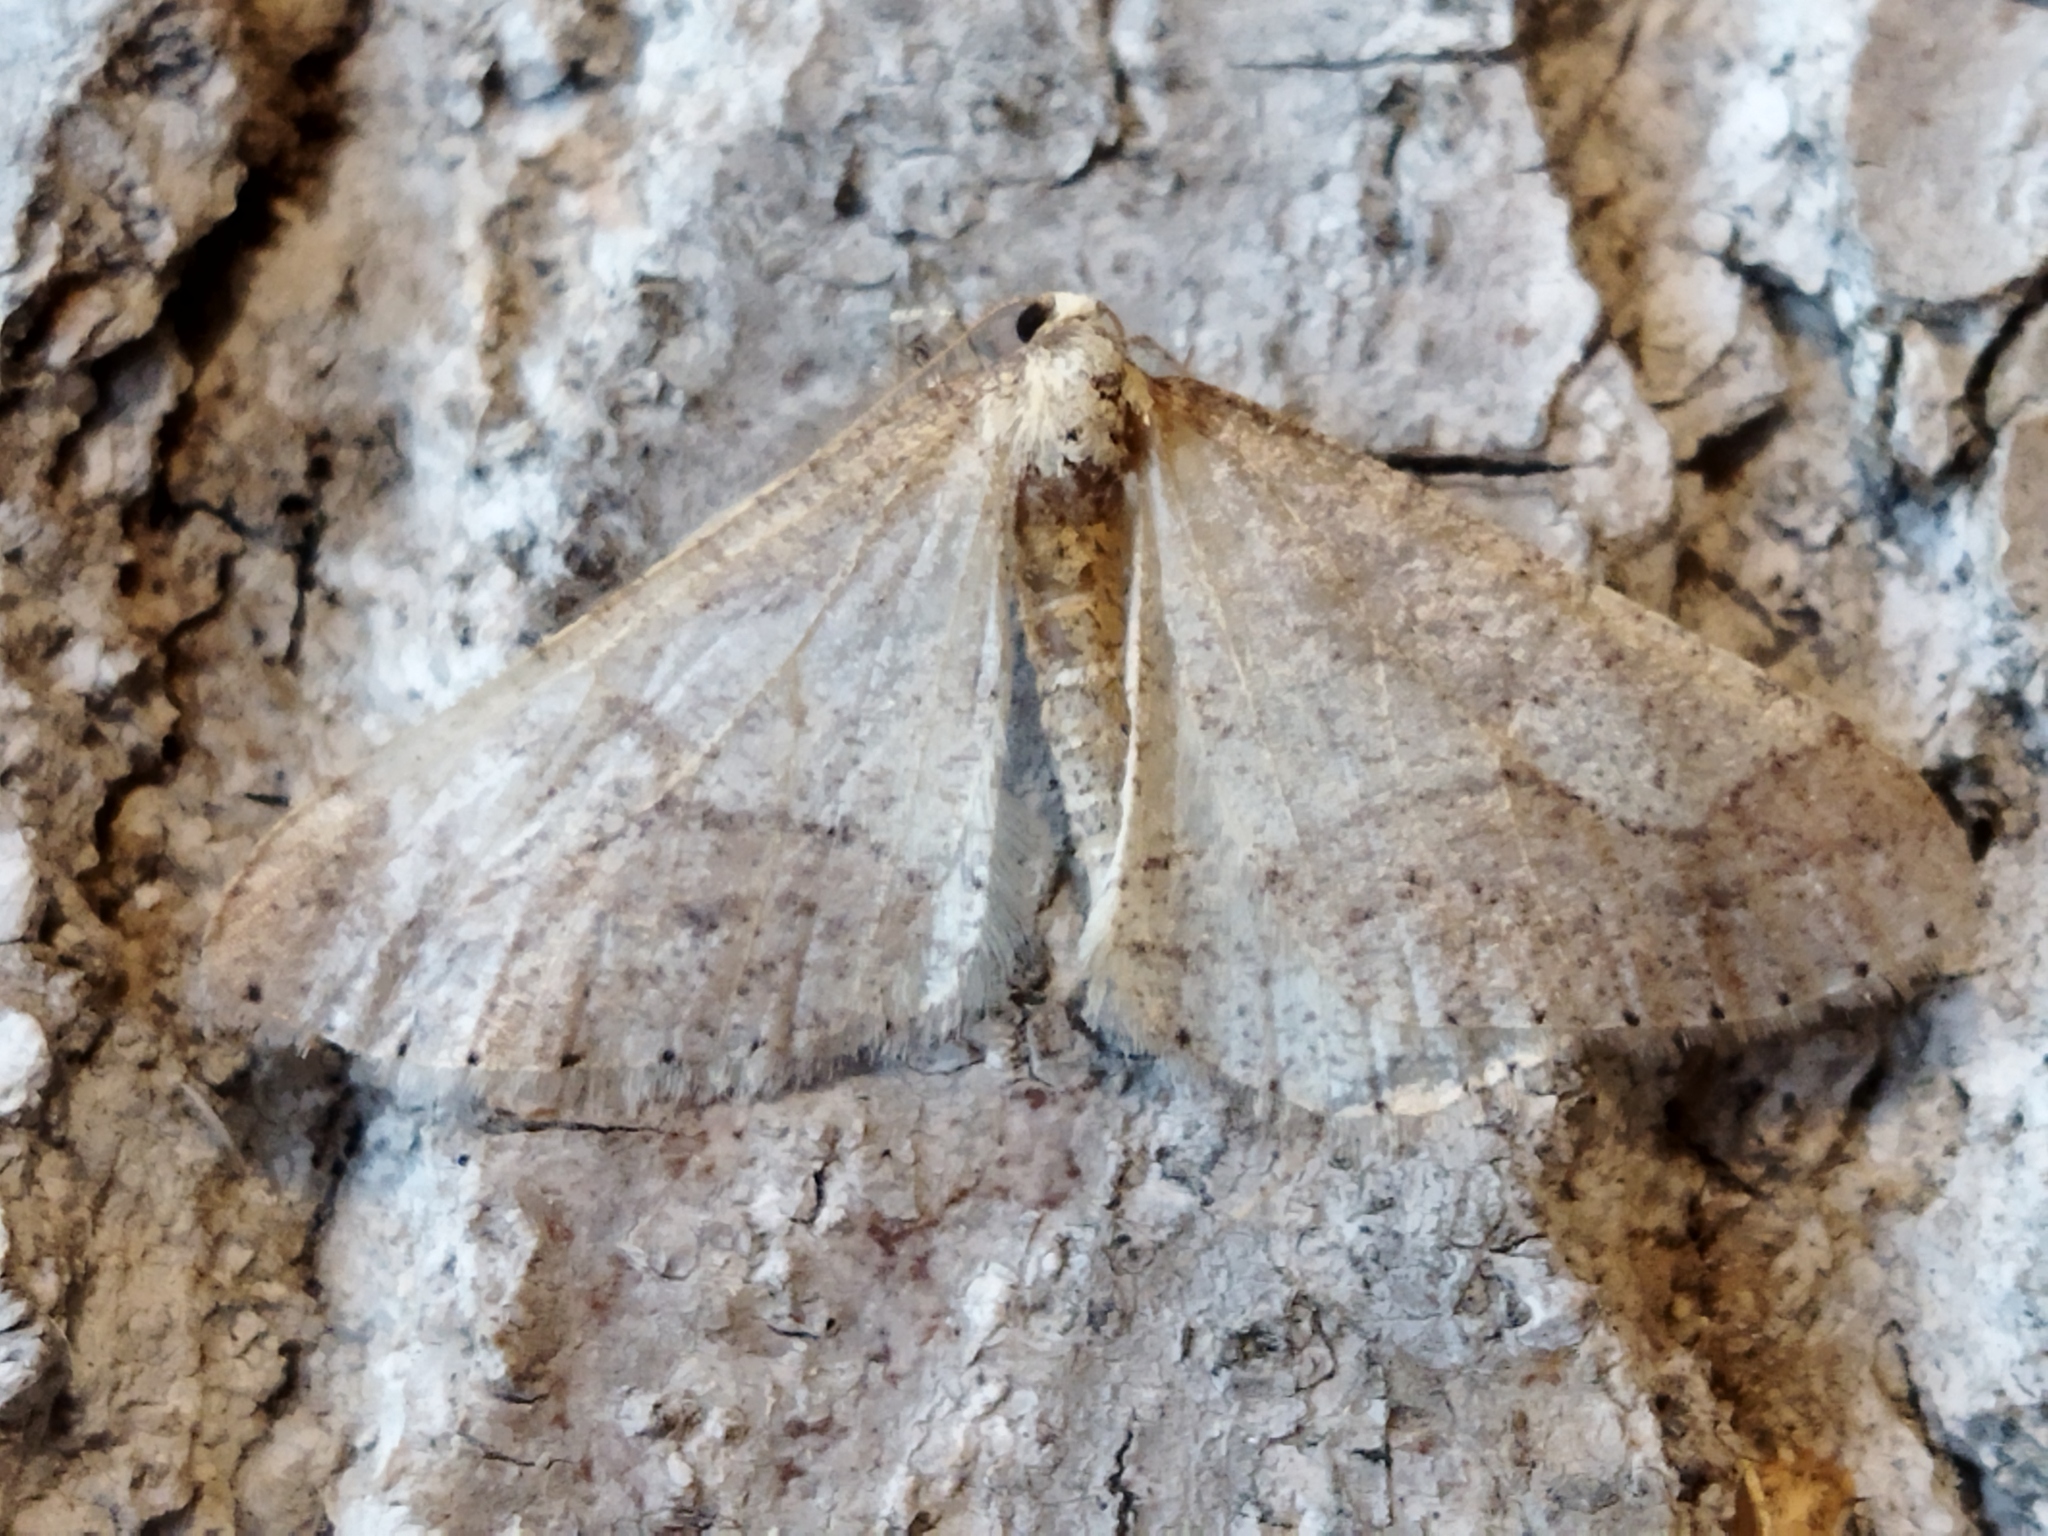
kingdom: Animalia
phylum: Arthropoda
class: Insecta
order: Lepidoptera
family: Geometridae
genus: Agriopis
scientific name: Agriopis marginaria
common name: Dotted border
